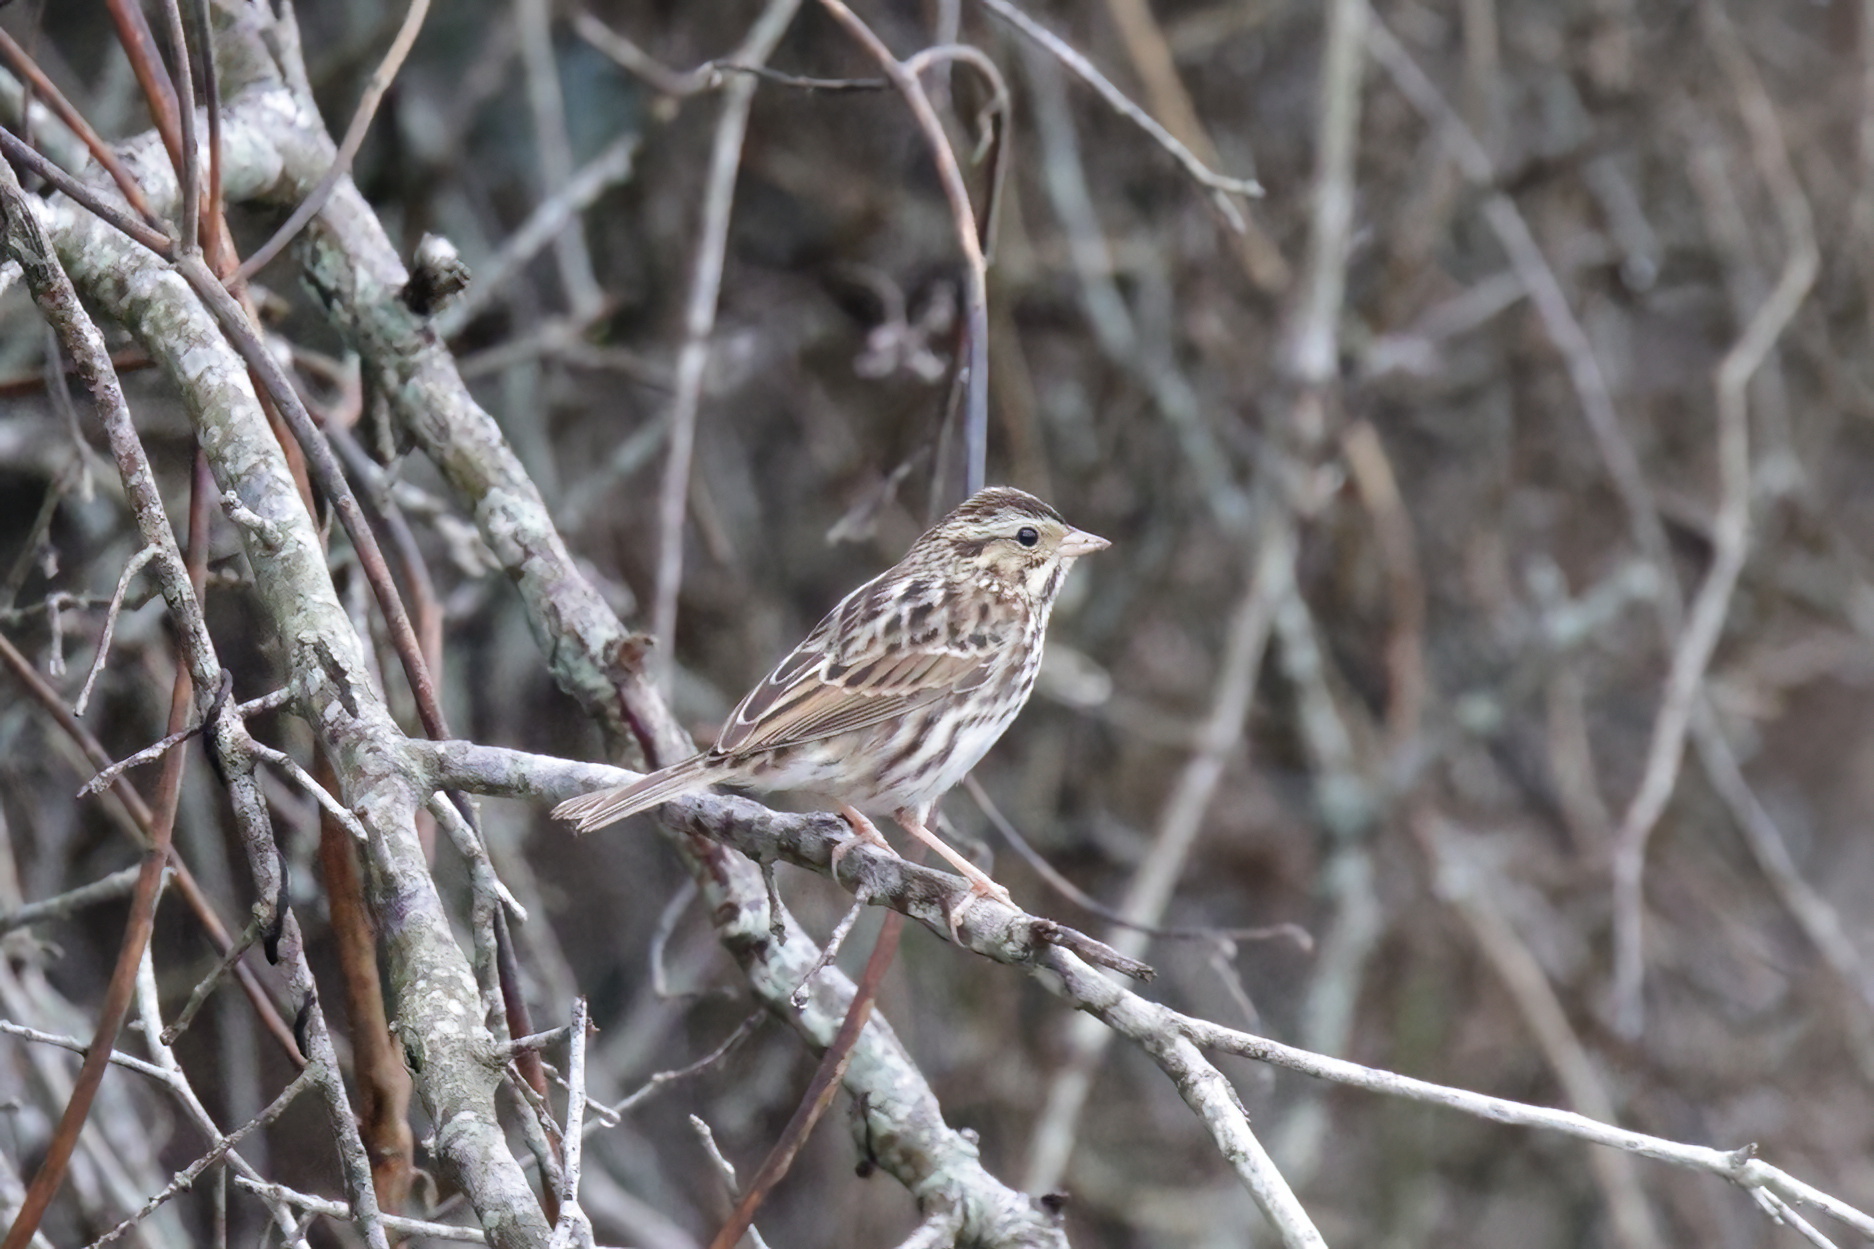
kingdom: Animalia
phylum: Chordata
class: Aves
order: Passeriformes
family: Passerellidae
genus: Passerculus
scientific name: Passerculus sandwichensis
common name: Savannah sparrow
